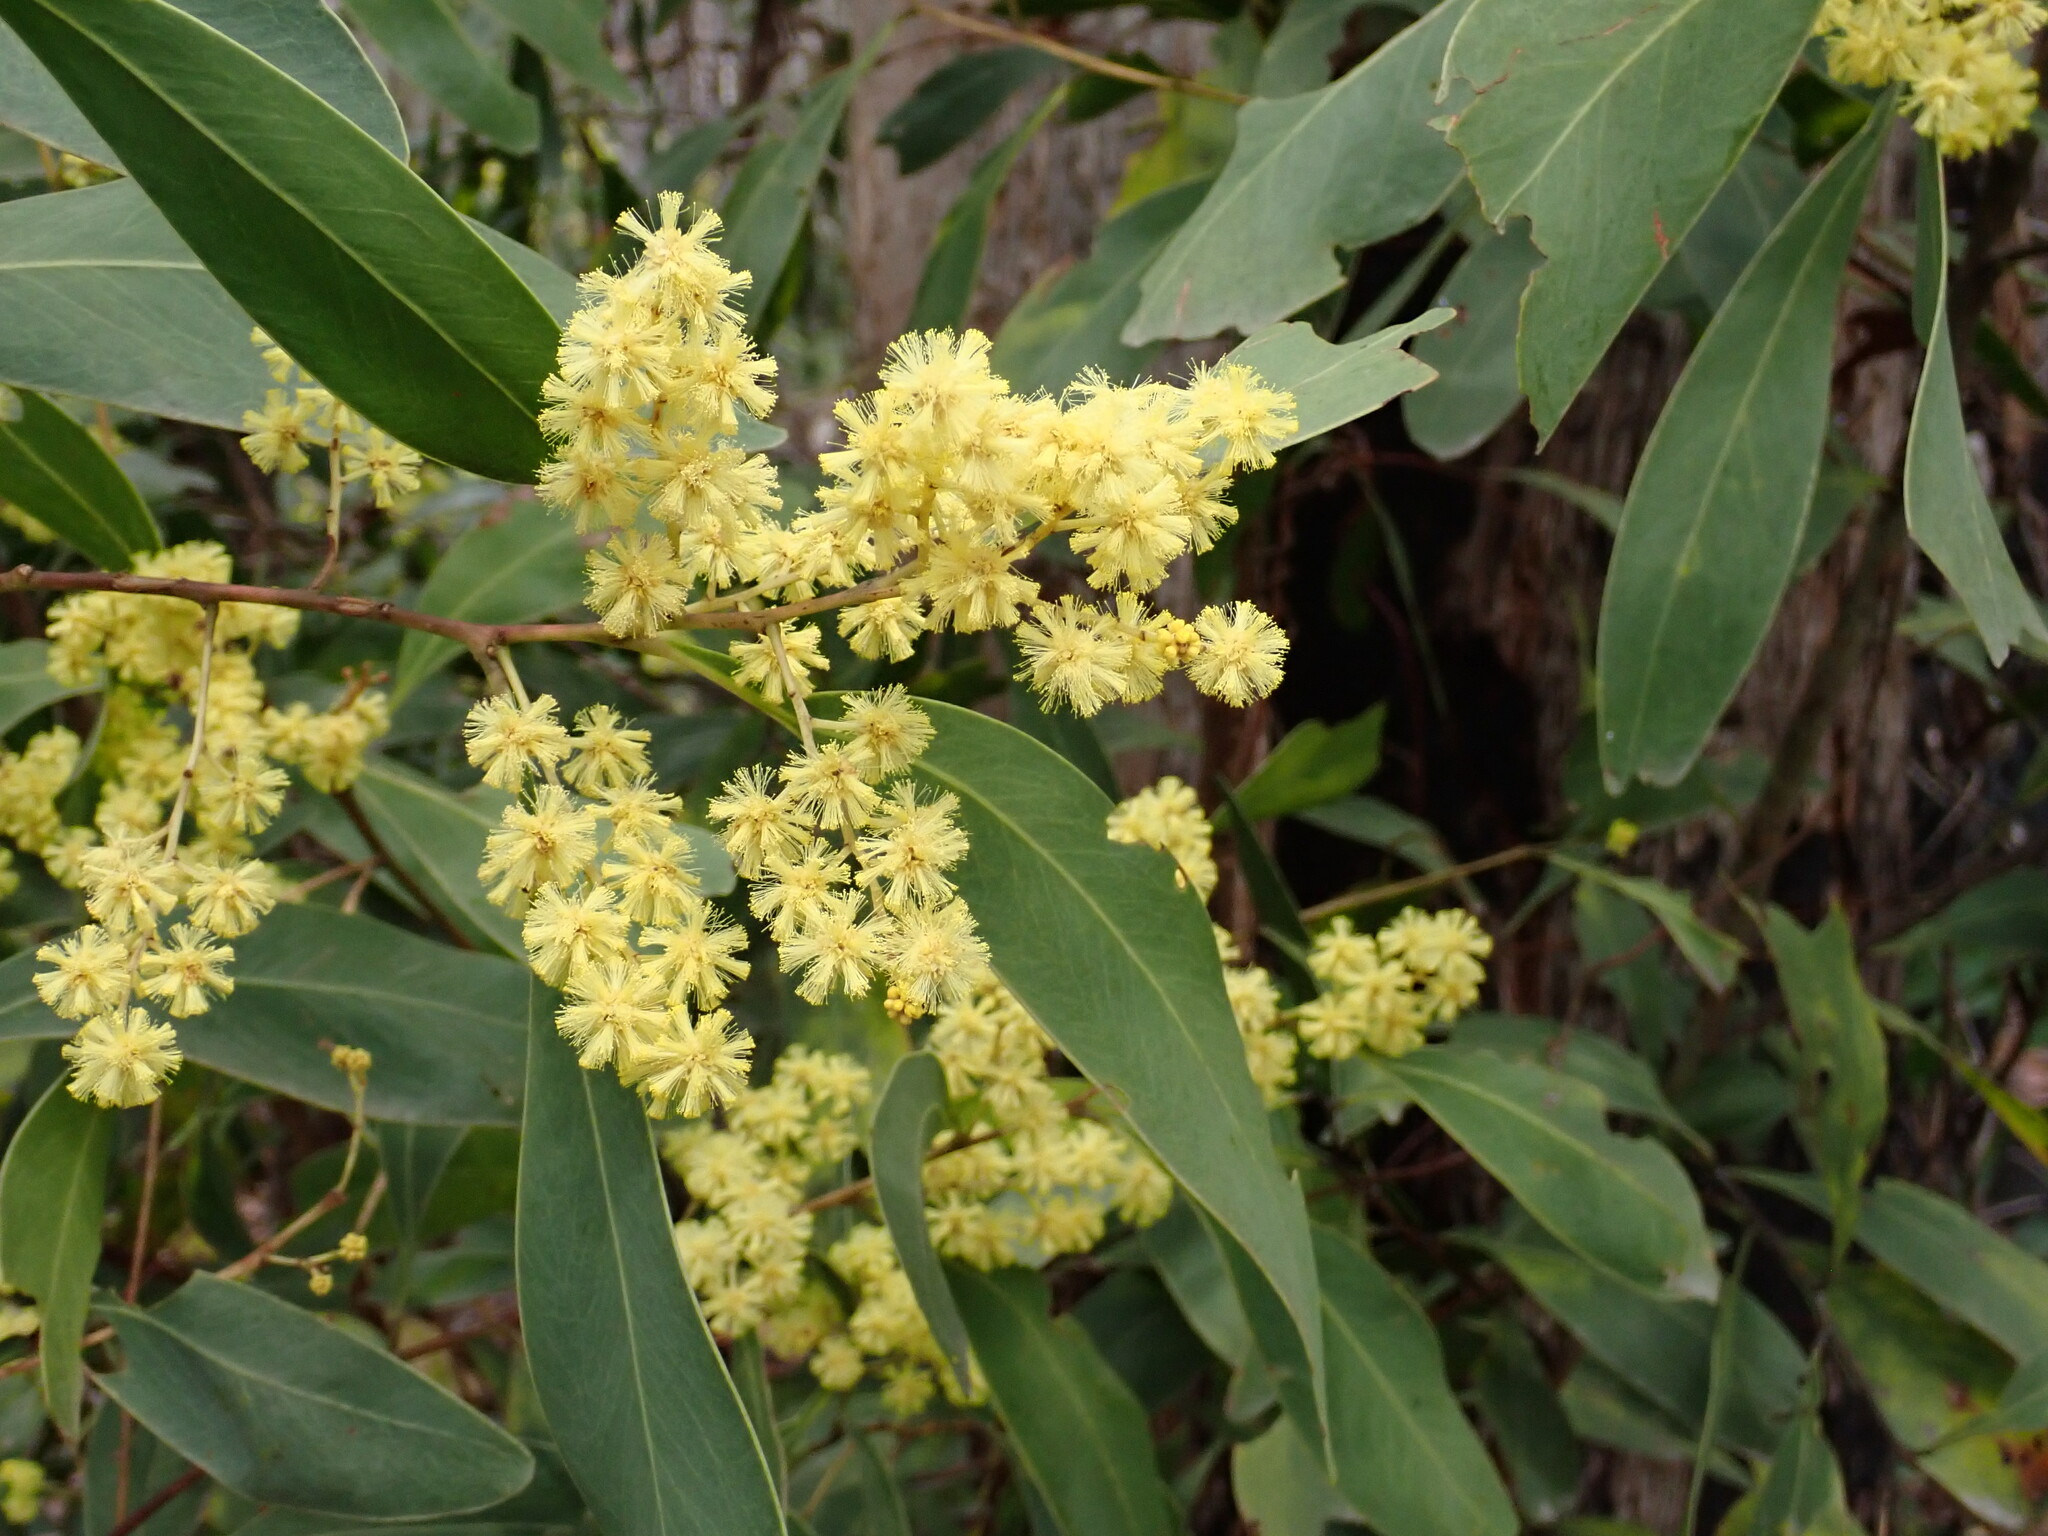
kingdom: Plantae
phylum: Tracheophyta
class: Magnoliopsida
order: Fabales
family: Fabaceae
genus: Acacia
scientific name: Acacia
